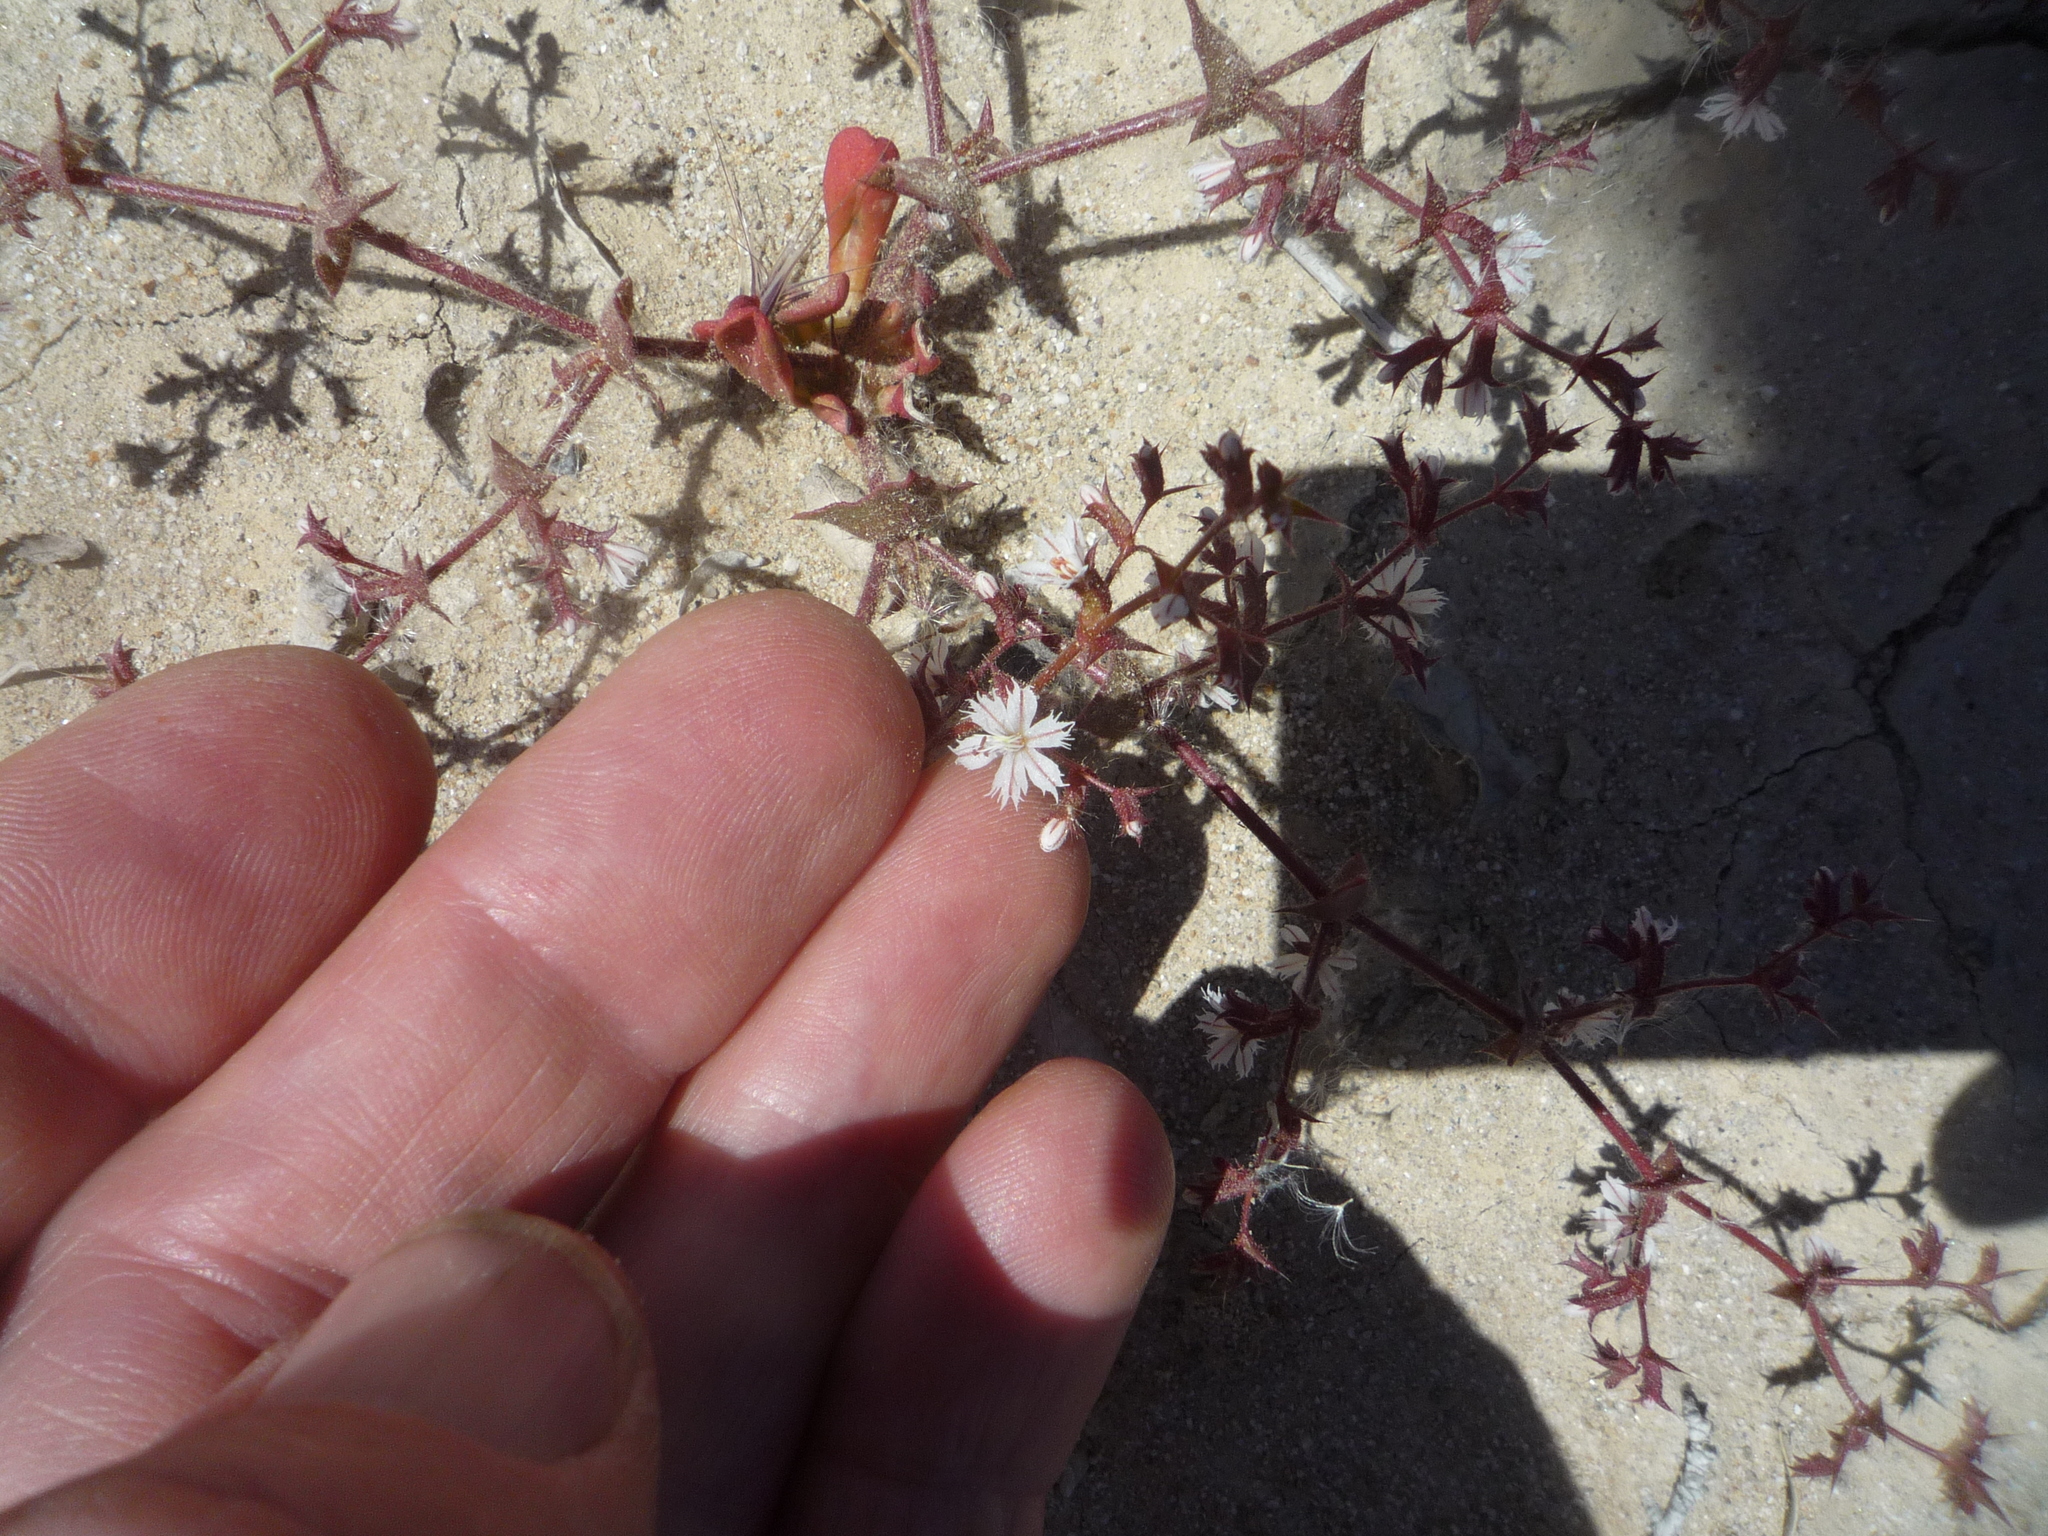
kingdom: Plantae
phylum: Tracheophyta
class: Magnoliopsida
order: Caryophyllales
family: Polygonaceae
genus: Mucronea
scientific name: Mucronea perfoliata
